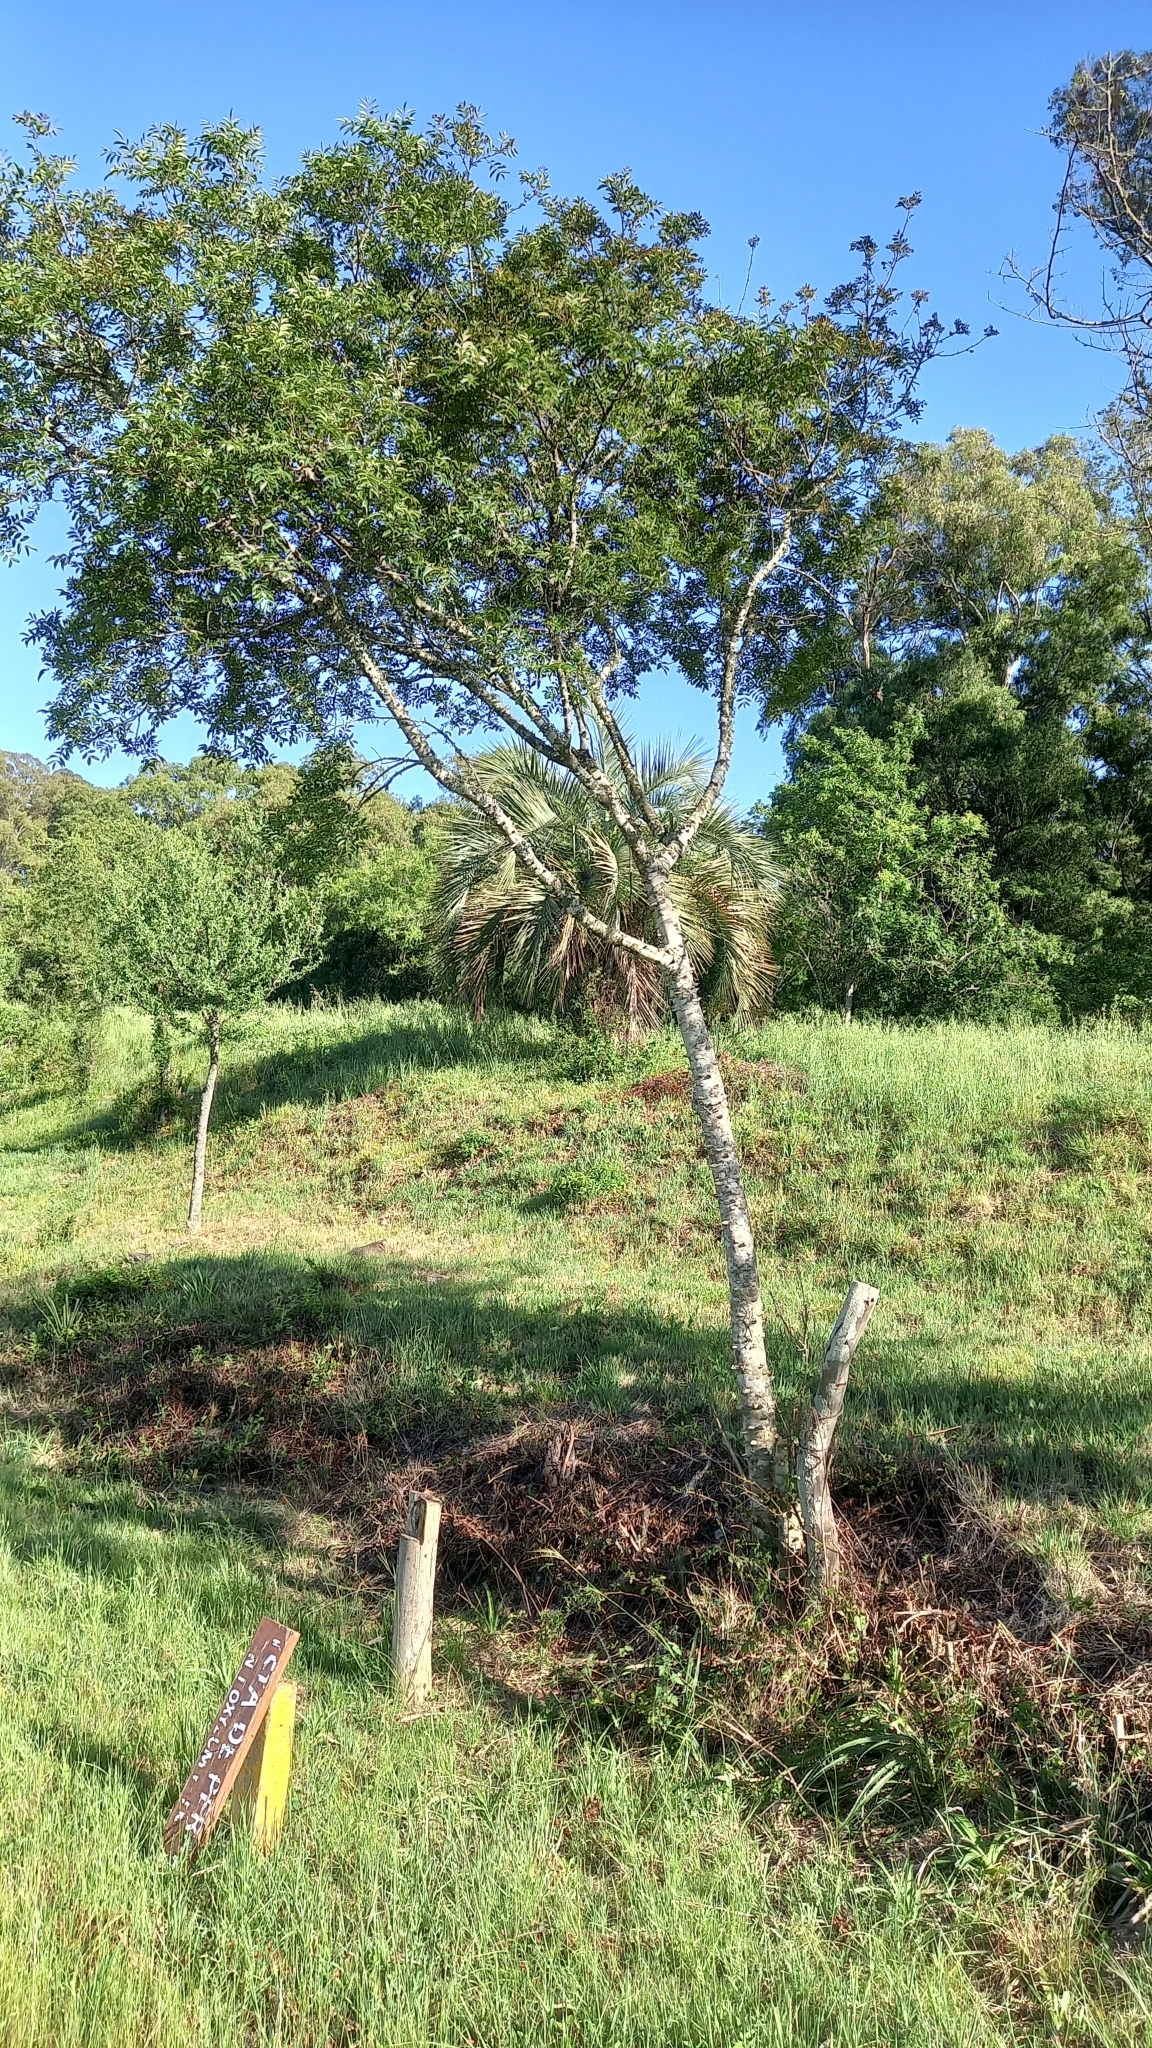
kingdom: Plantae
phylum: Tracheophyta
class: Magnoliopsida
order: Sapindales
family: Rutaceae
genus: Zanthoxylum
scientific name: Zanthoxylum rhoifolium
